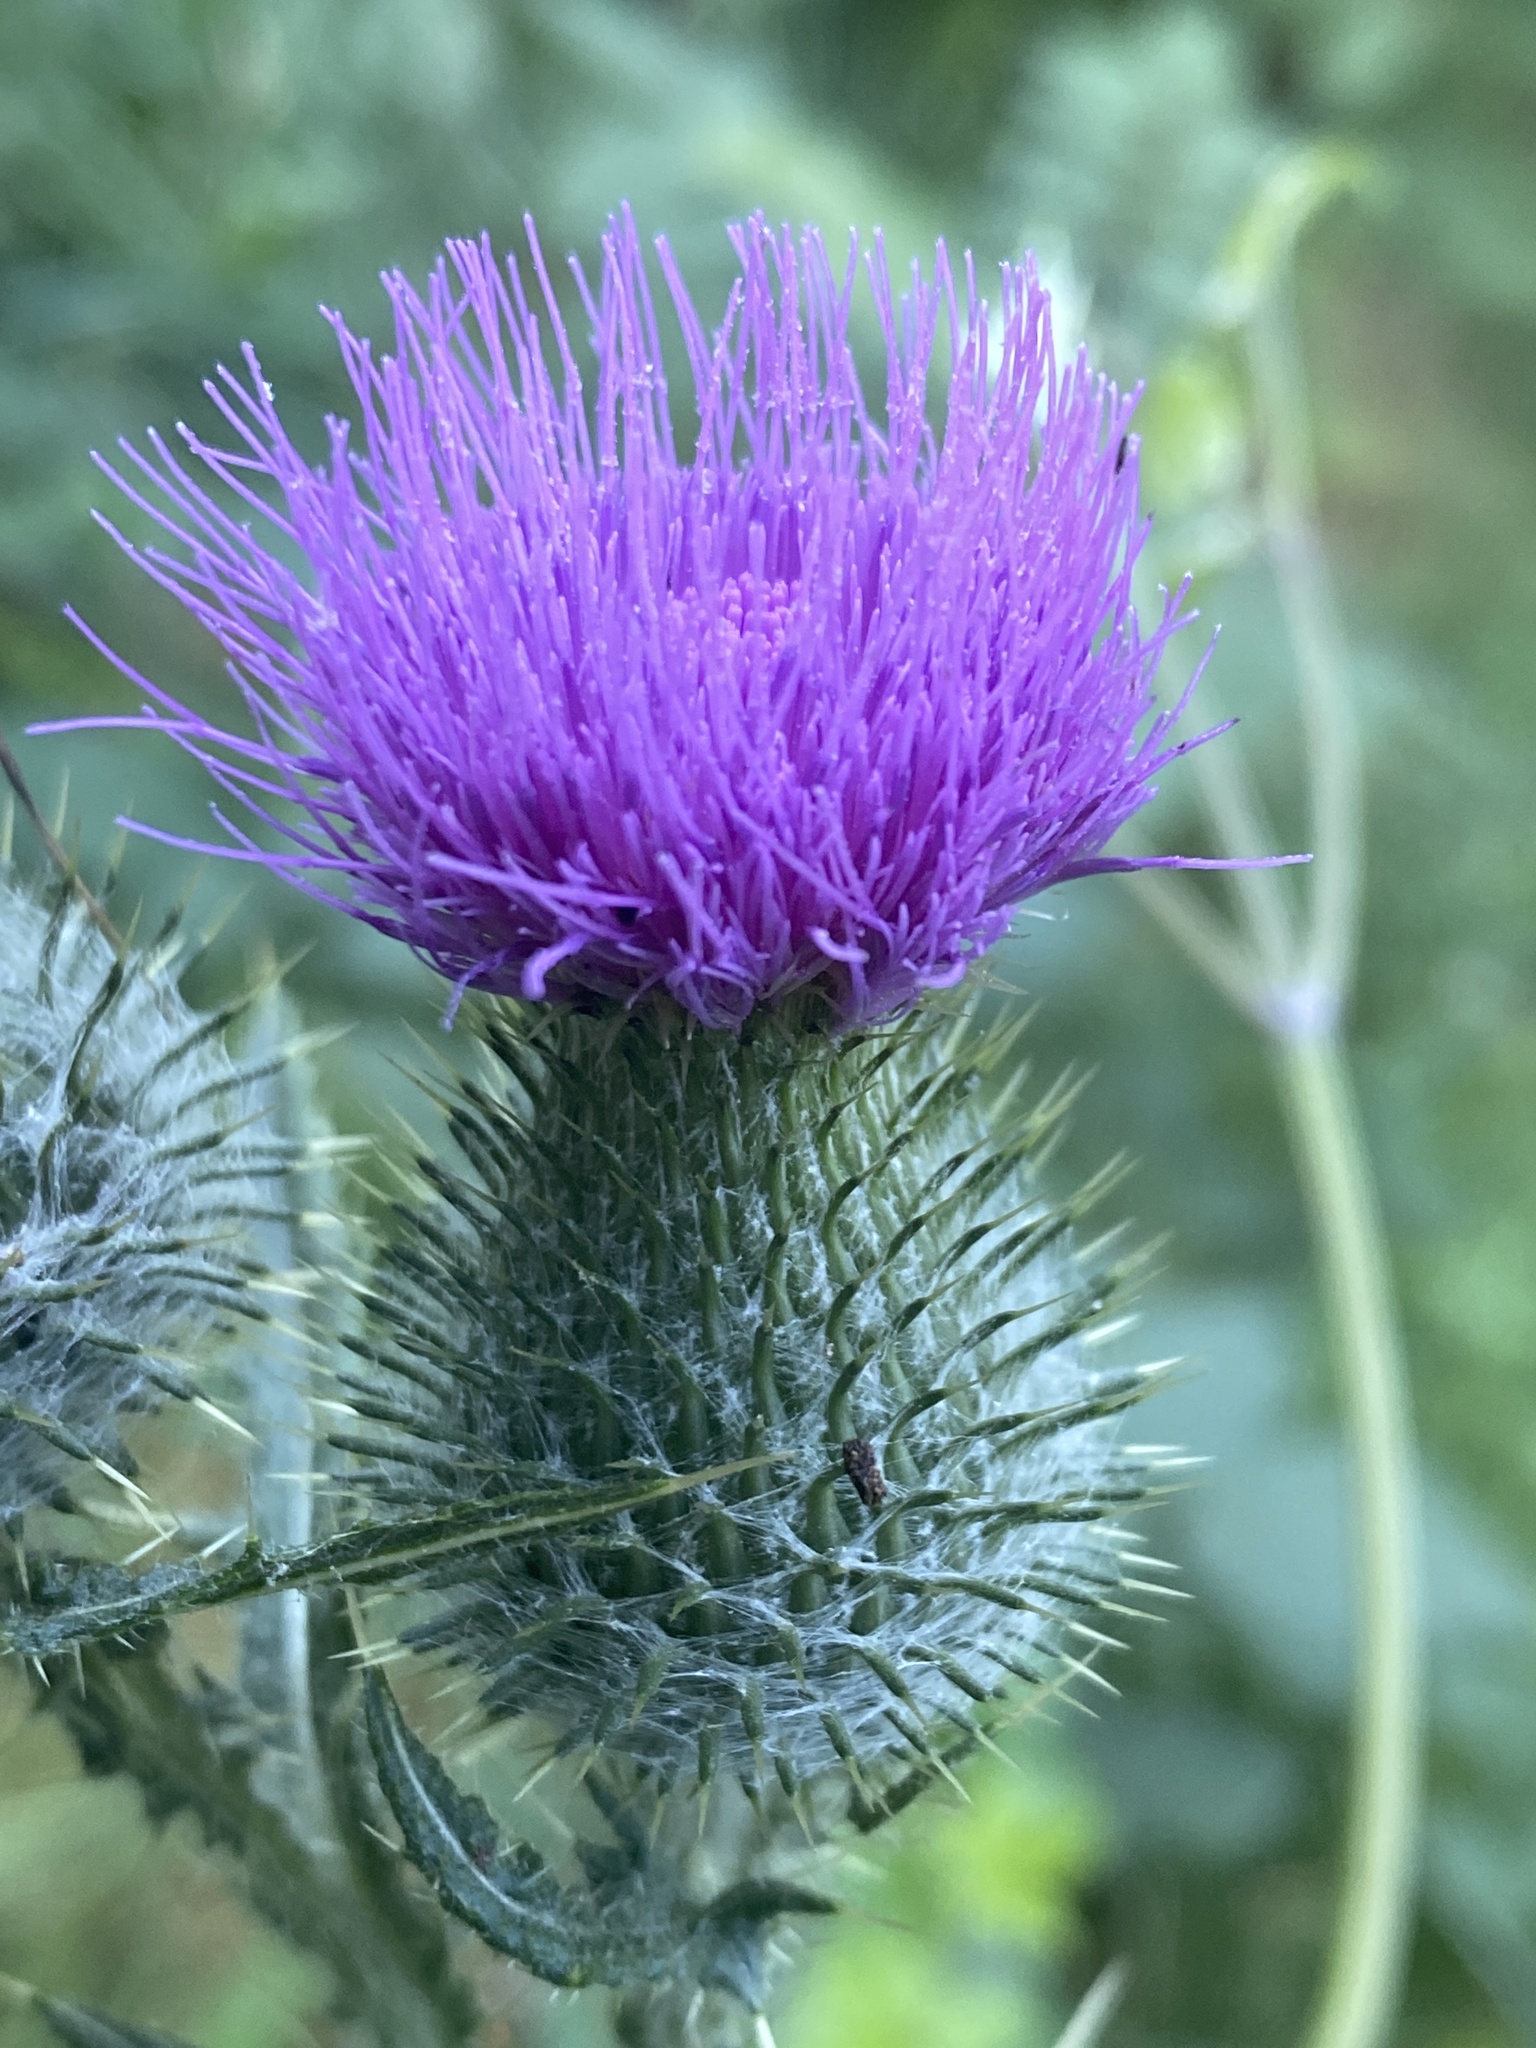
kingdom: Plantae
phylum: Tracheophyta
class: Magnoliopsida
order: Asterales
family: Asteraceae
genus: Cirsium
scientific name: Cirsium vulgare
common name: Bull thistle
